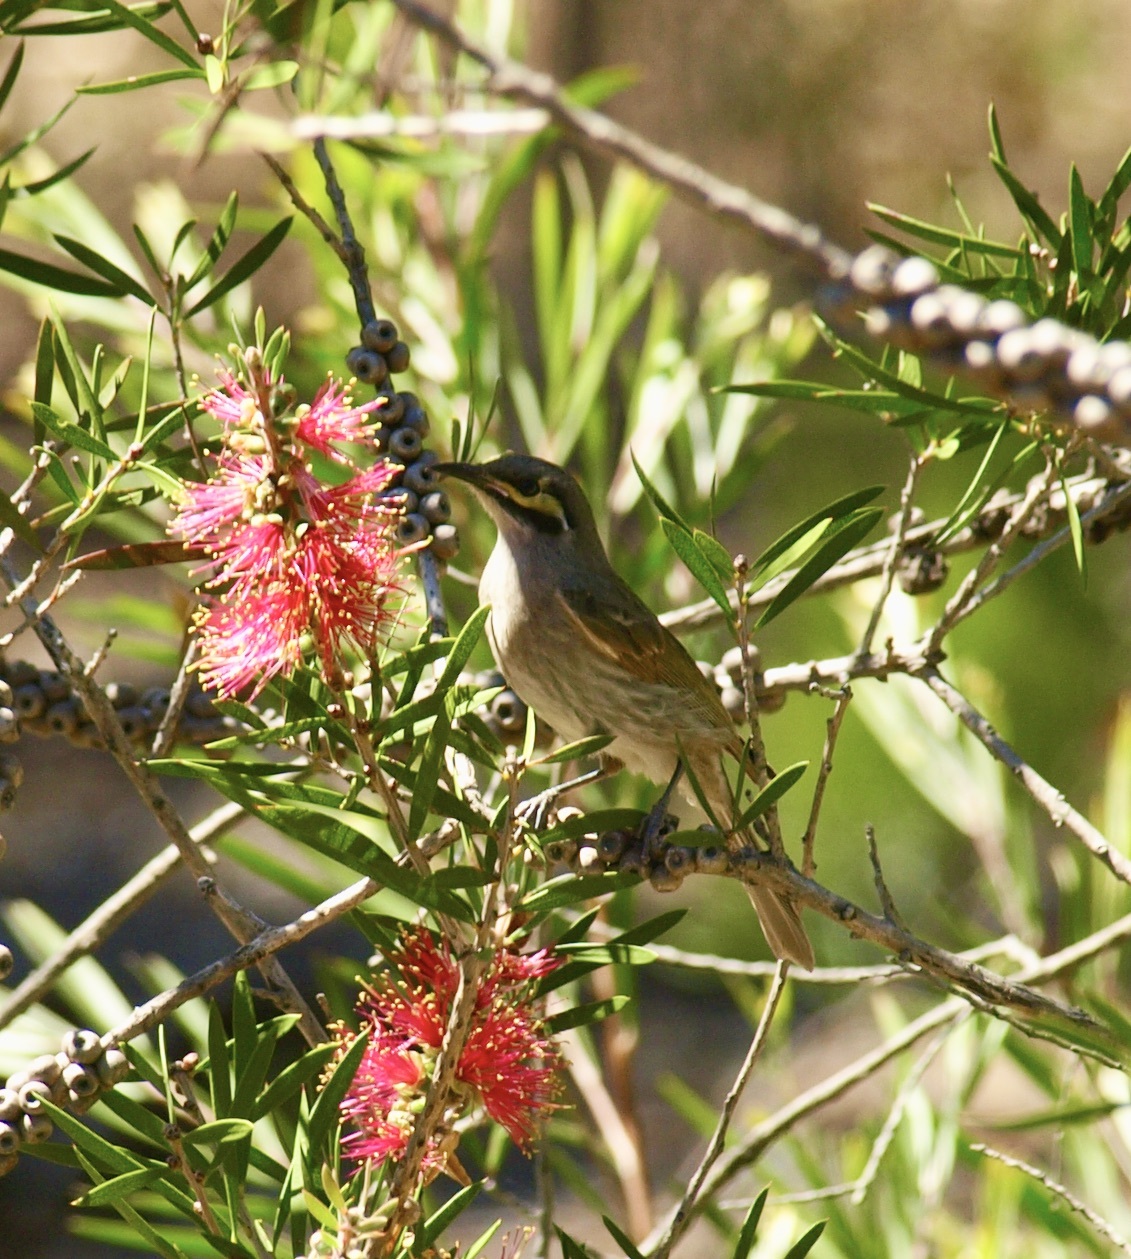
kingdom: Animalia
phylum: Chordata
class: Aves
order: Passeriformes
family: Meliphagidae
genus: Caligavis
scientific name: Caligavis chrysops
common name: Yellow-faced honeyeater
